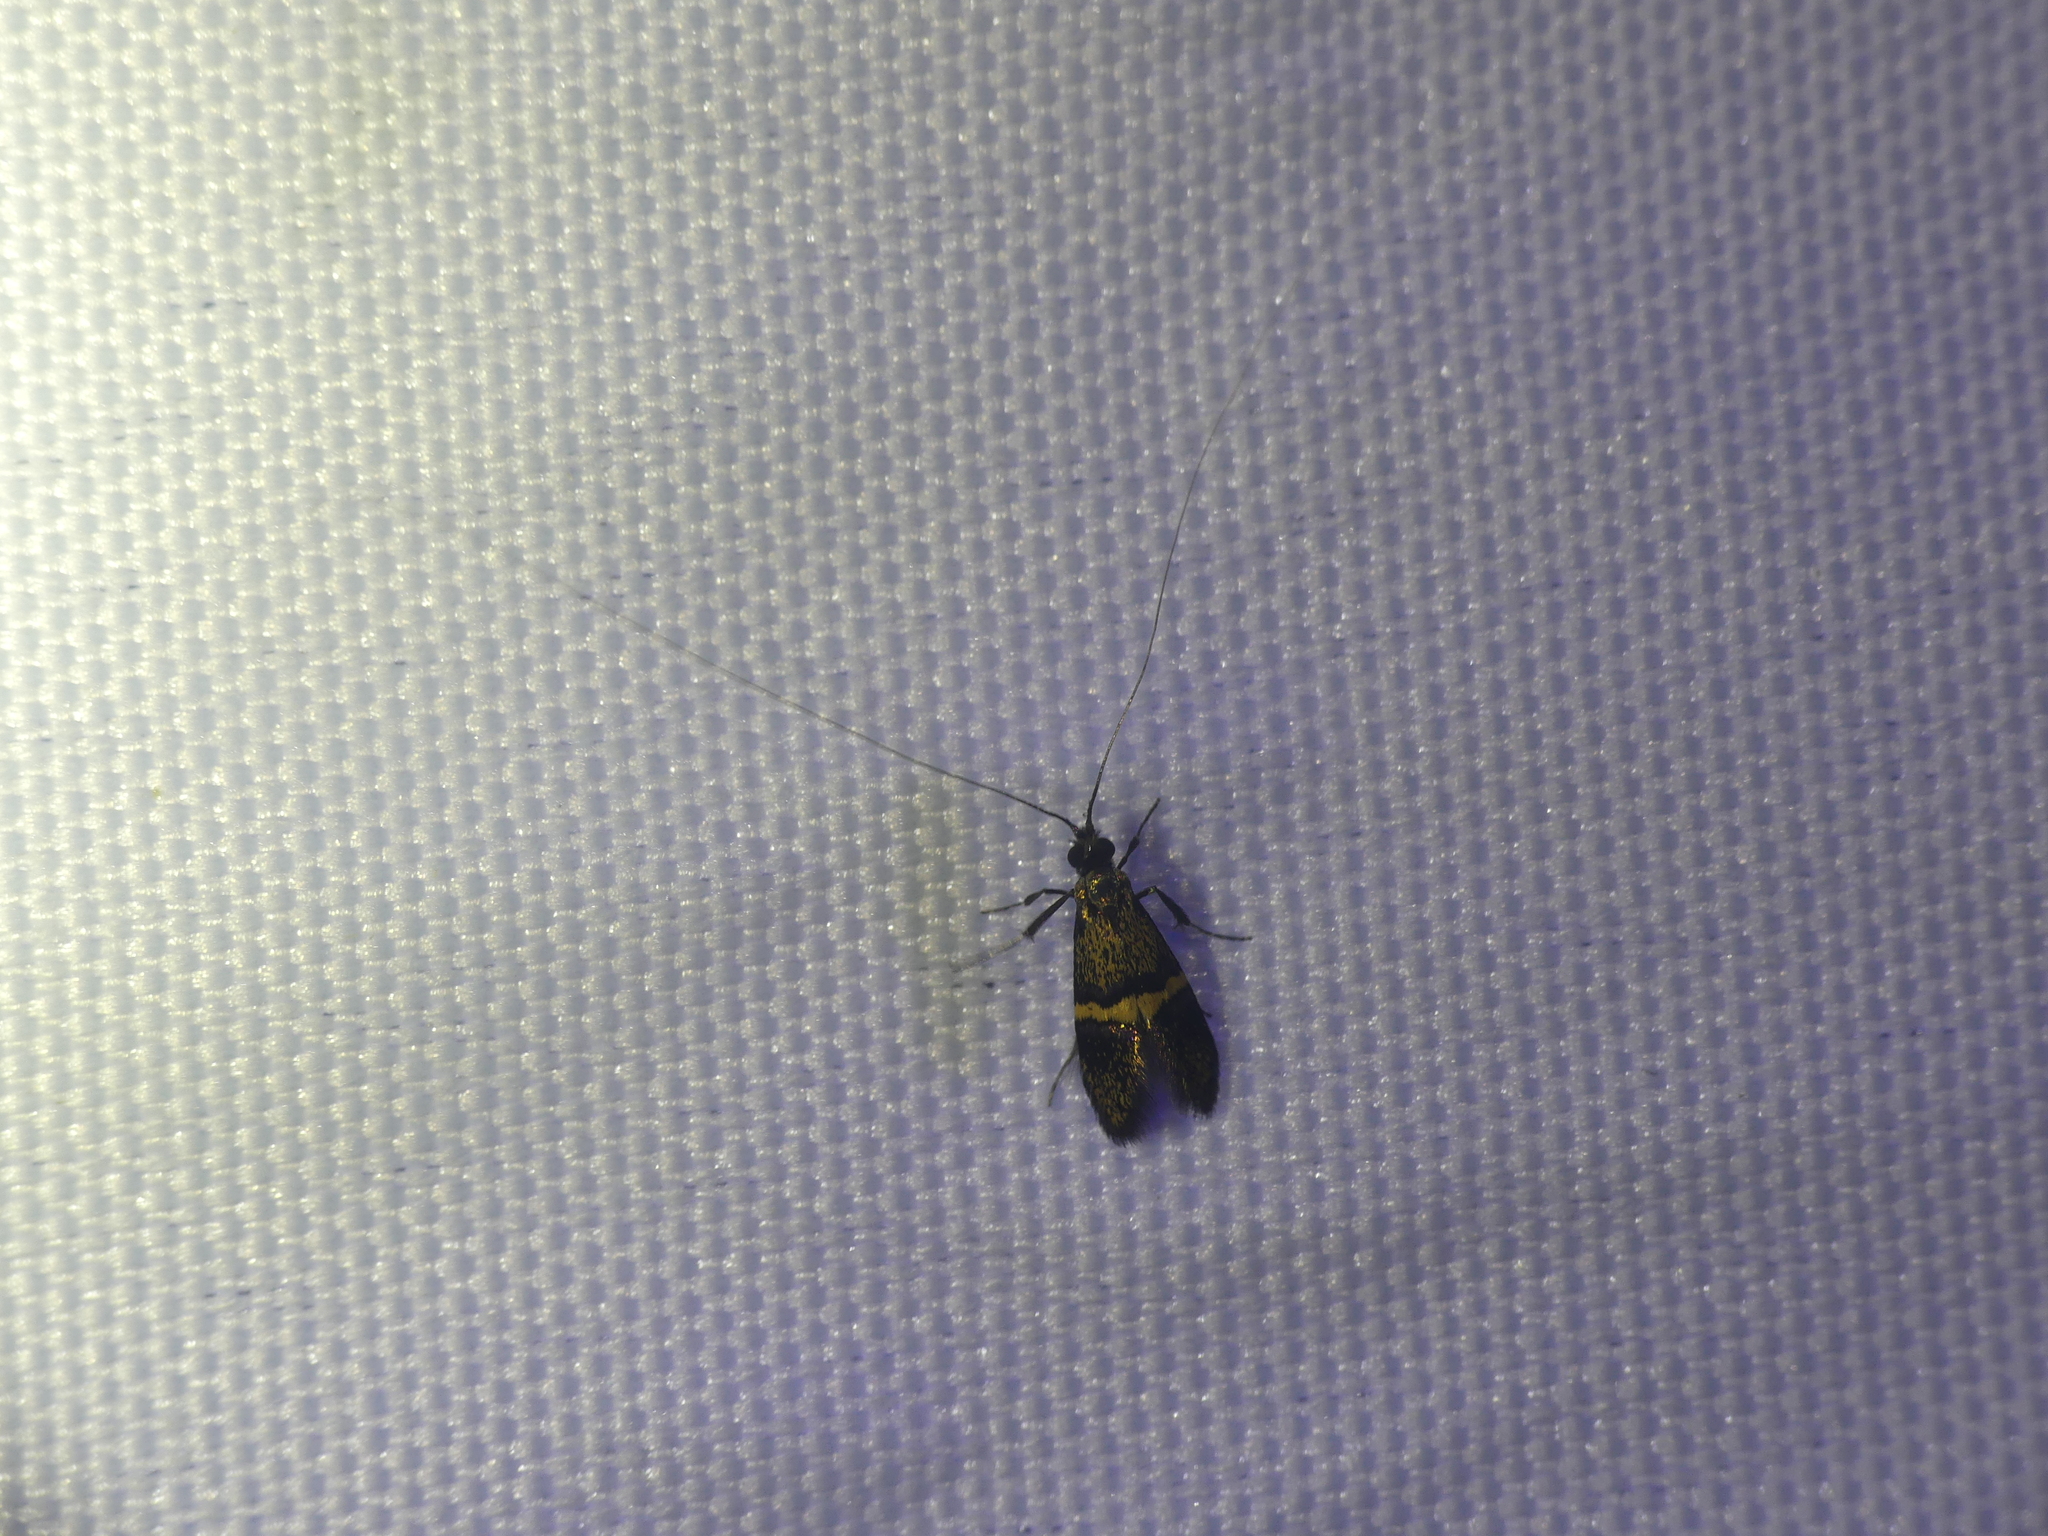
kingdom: Animalia
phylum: Arthropoda
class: Insecta
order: Lepidoptera
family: Adelidae
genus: Nemophora
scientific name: Nemophora associatella
